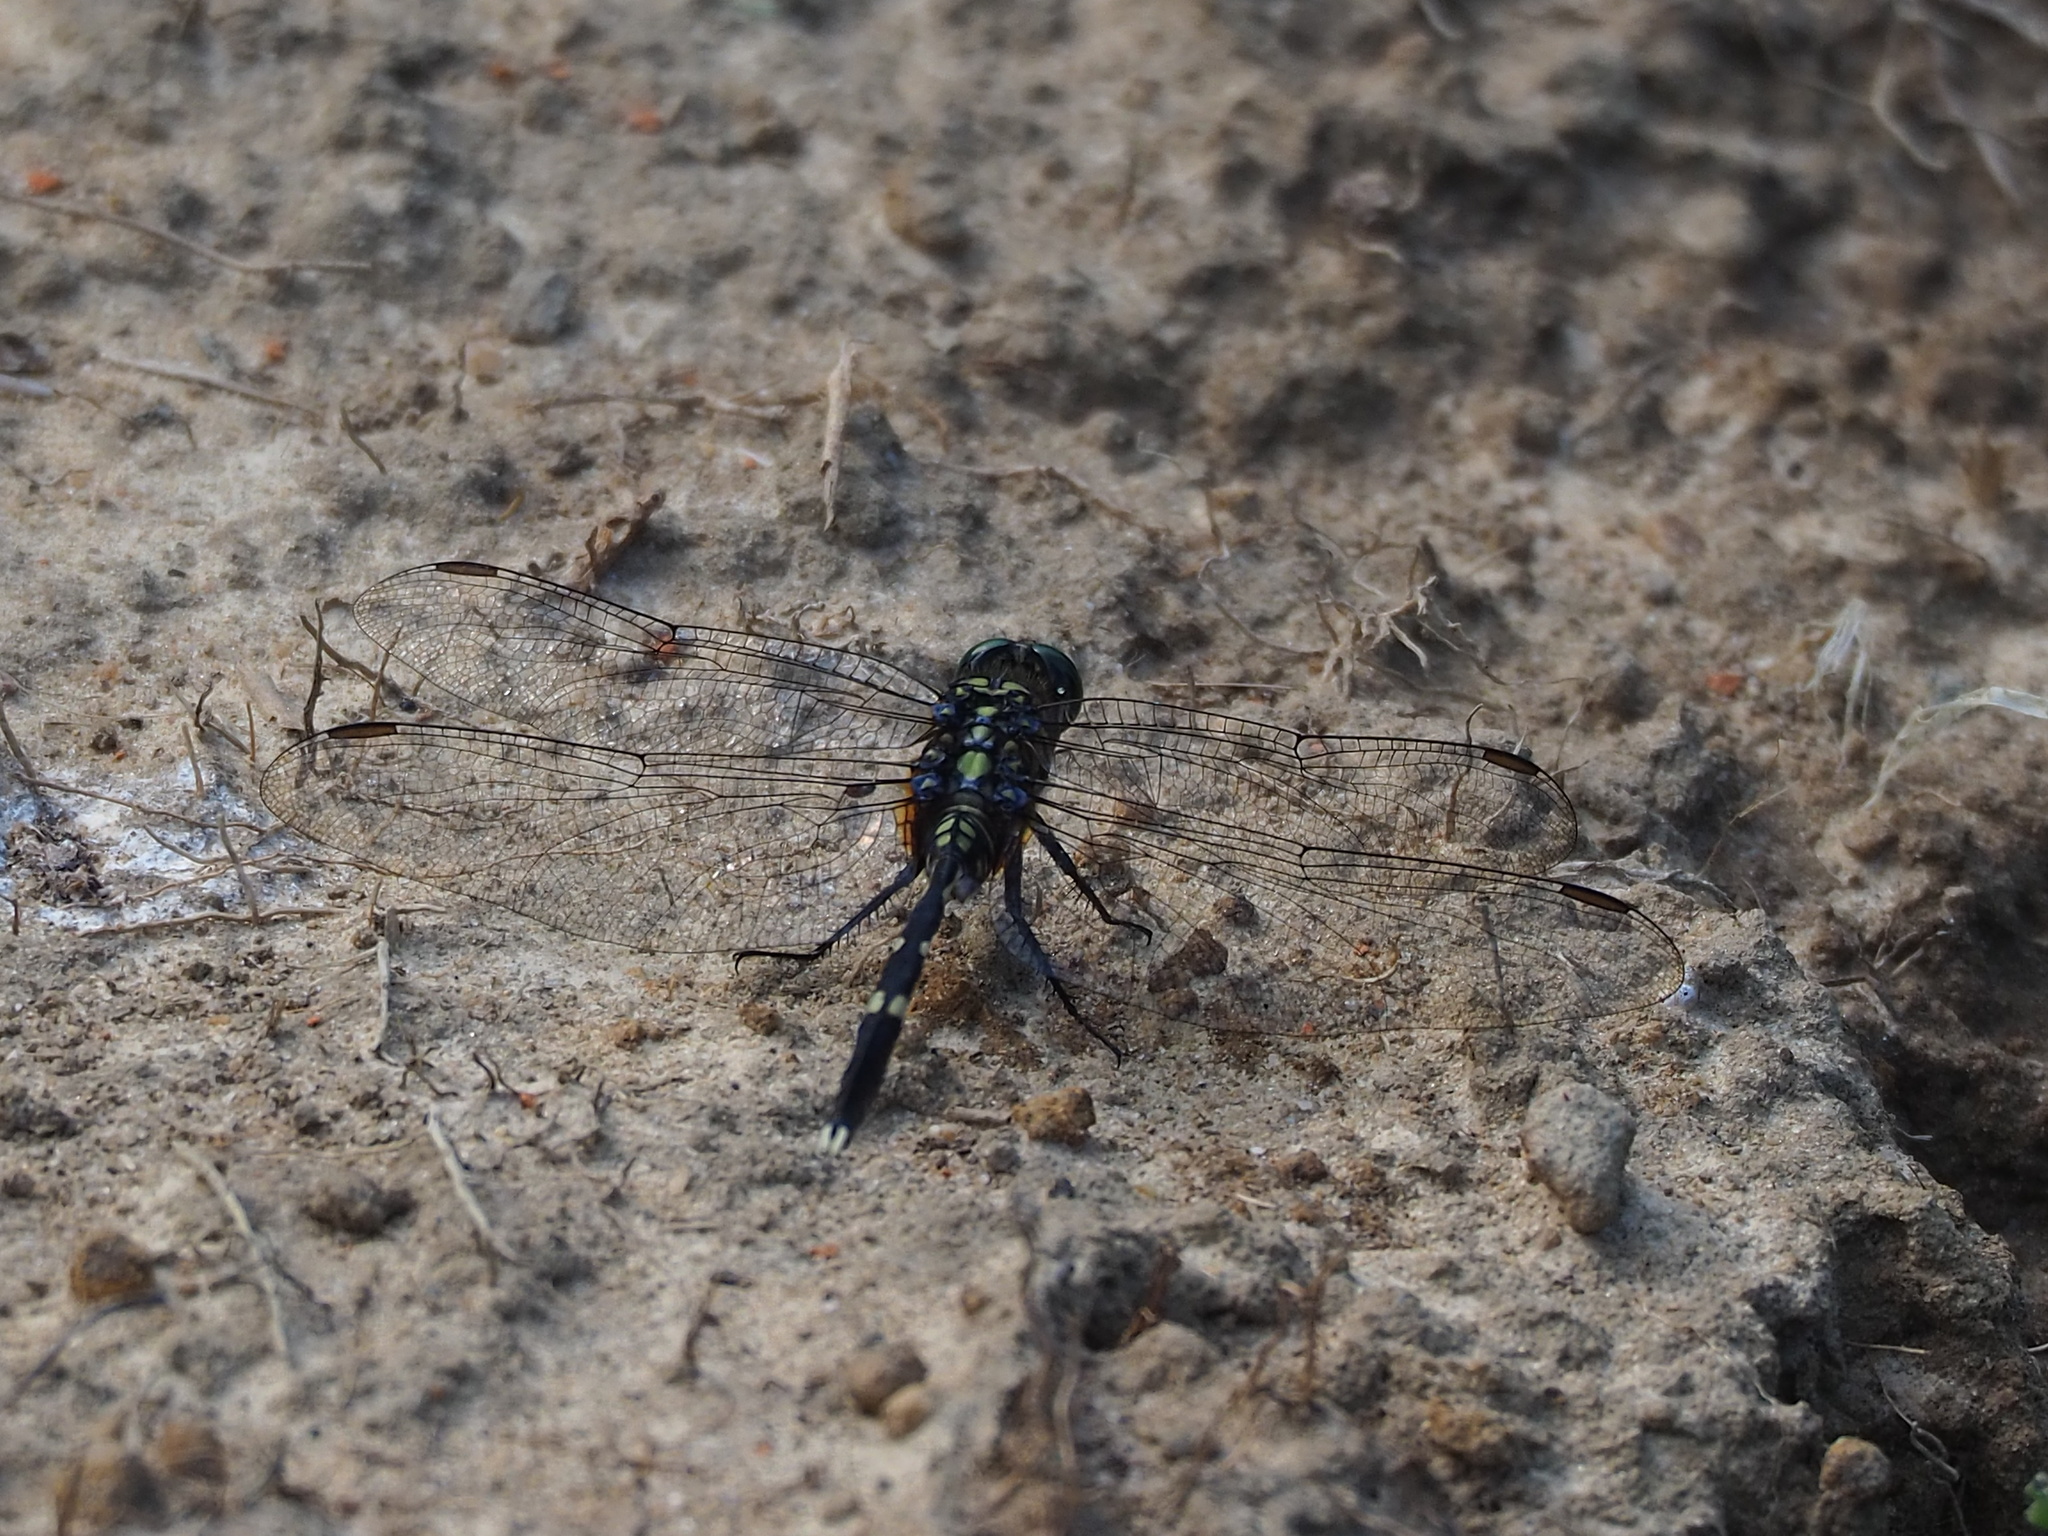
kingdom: Animalia
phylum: Arthropoda
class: Insecta
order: Odonata
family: Libellulidae
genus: Orthetrum
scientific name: Orthetrum sabina
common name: Slender skimmer
